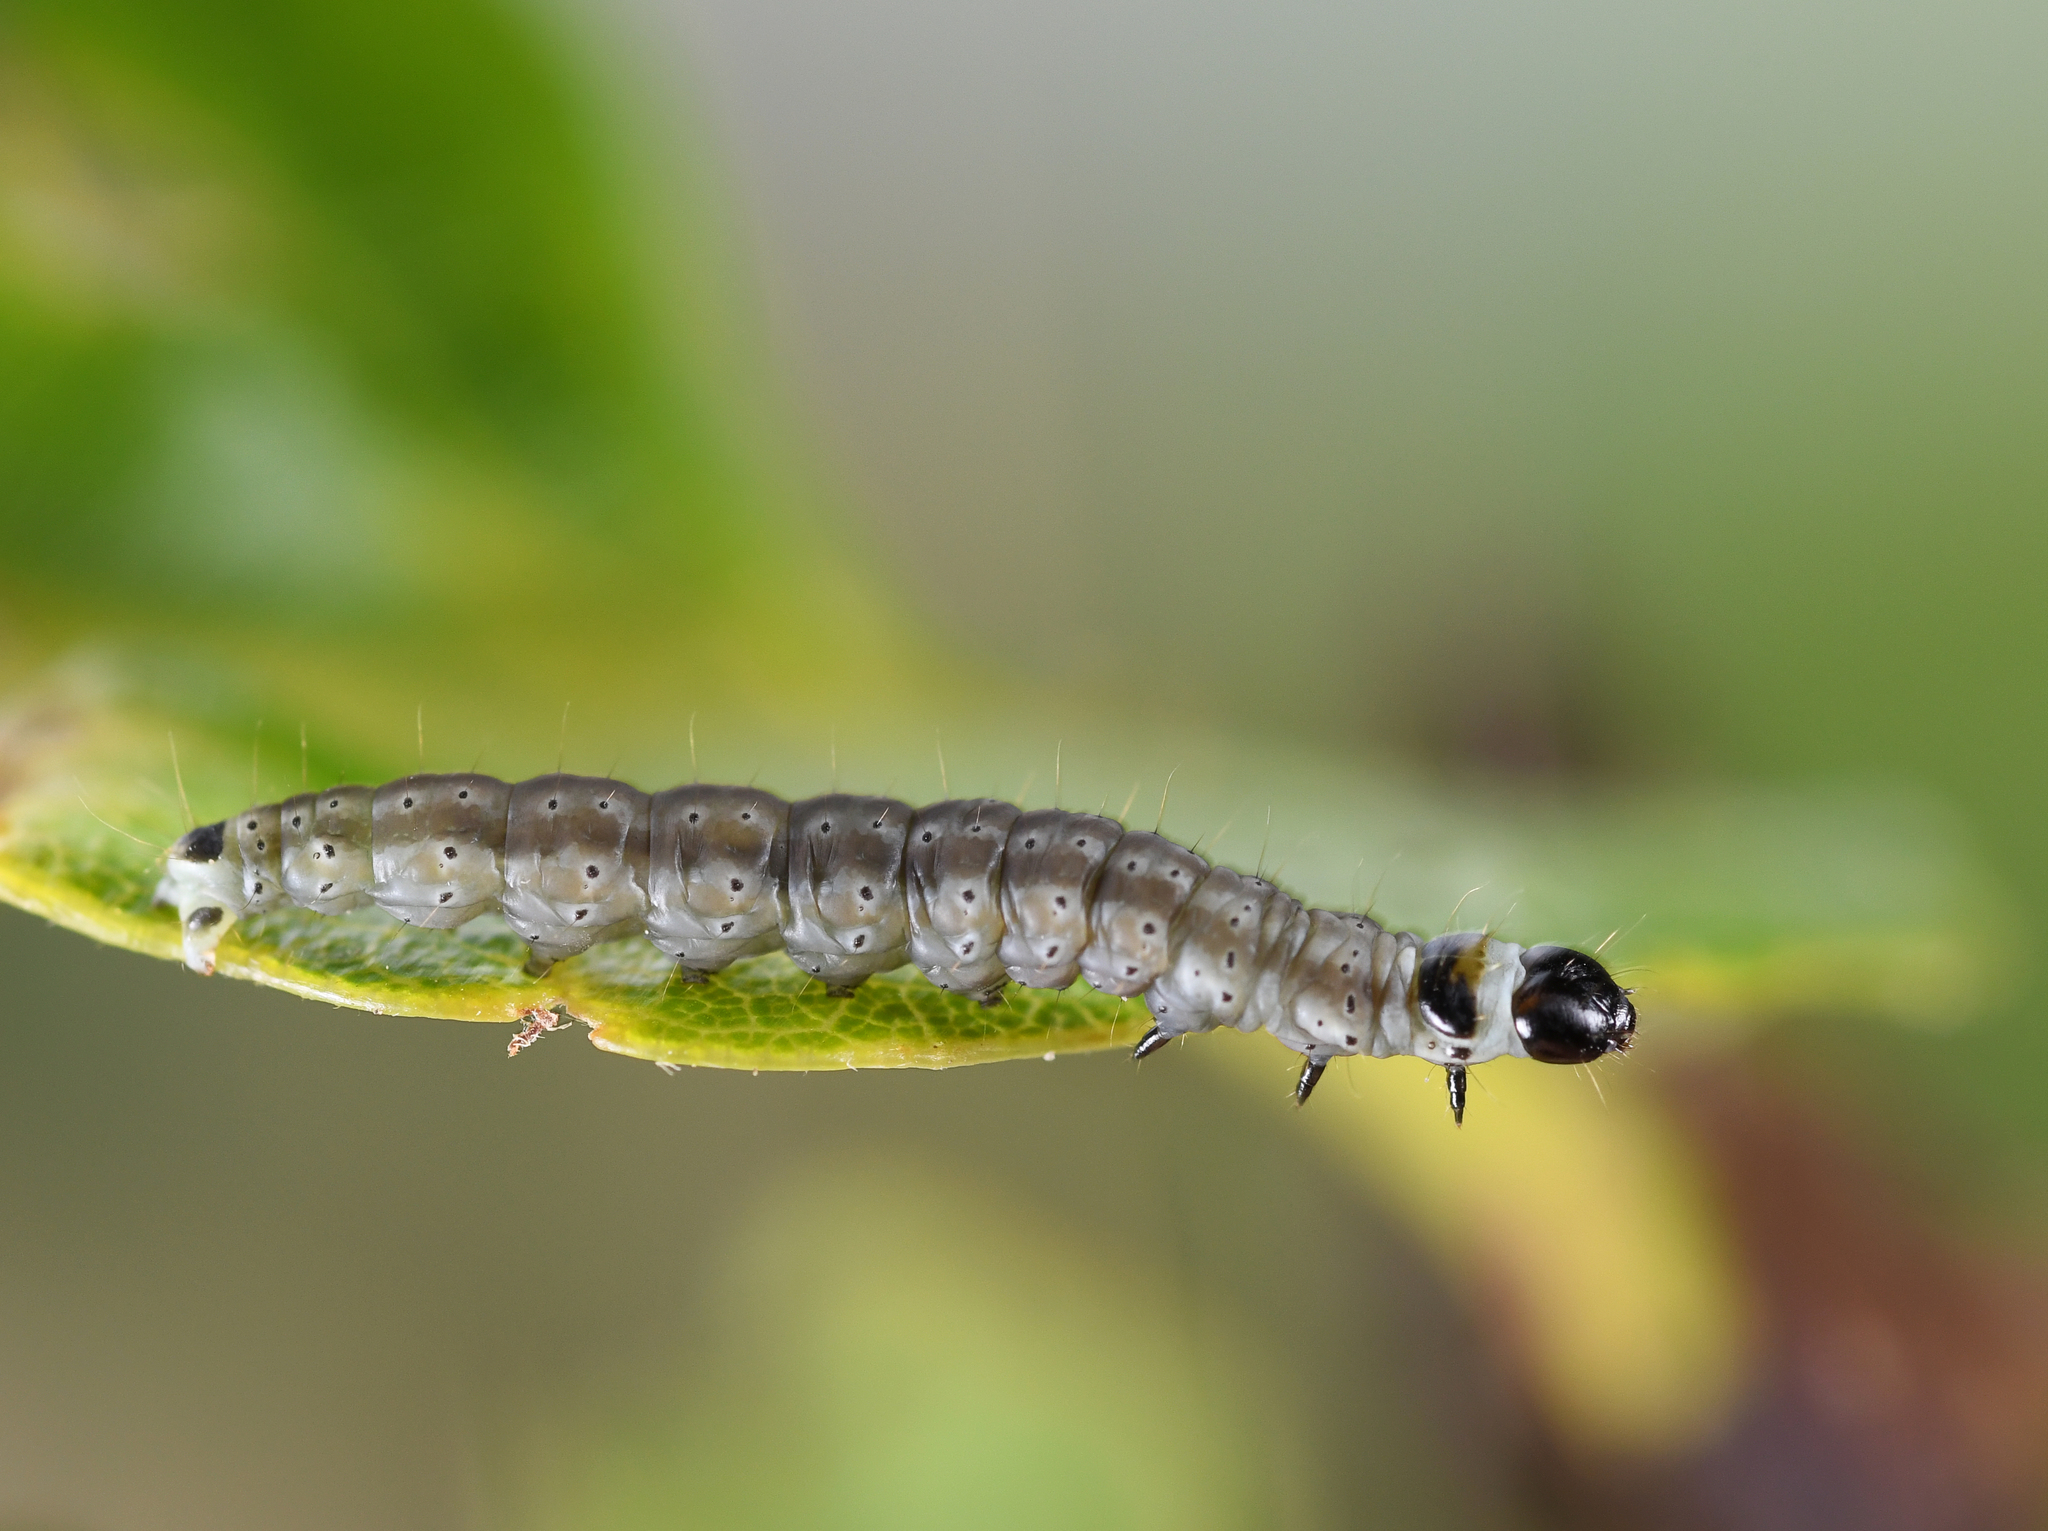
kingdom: Animalia
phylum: Arthropoda
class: Insecta
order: Lepidoptera
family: Gelechiidae
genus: Psoricoptera
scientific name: Psoricoptera gibbosella
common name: Humped crest
